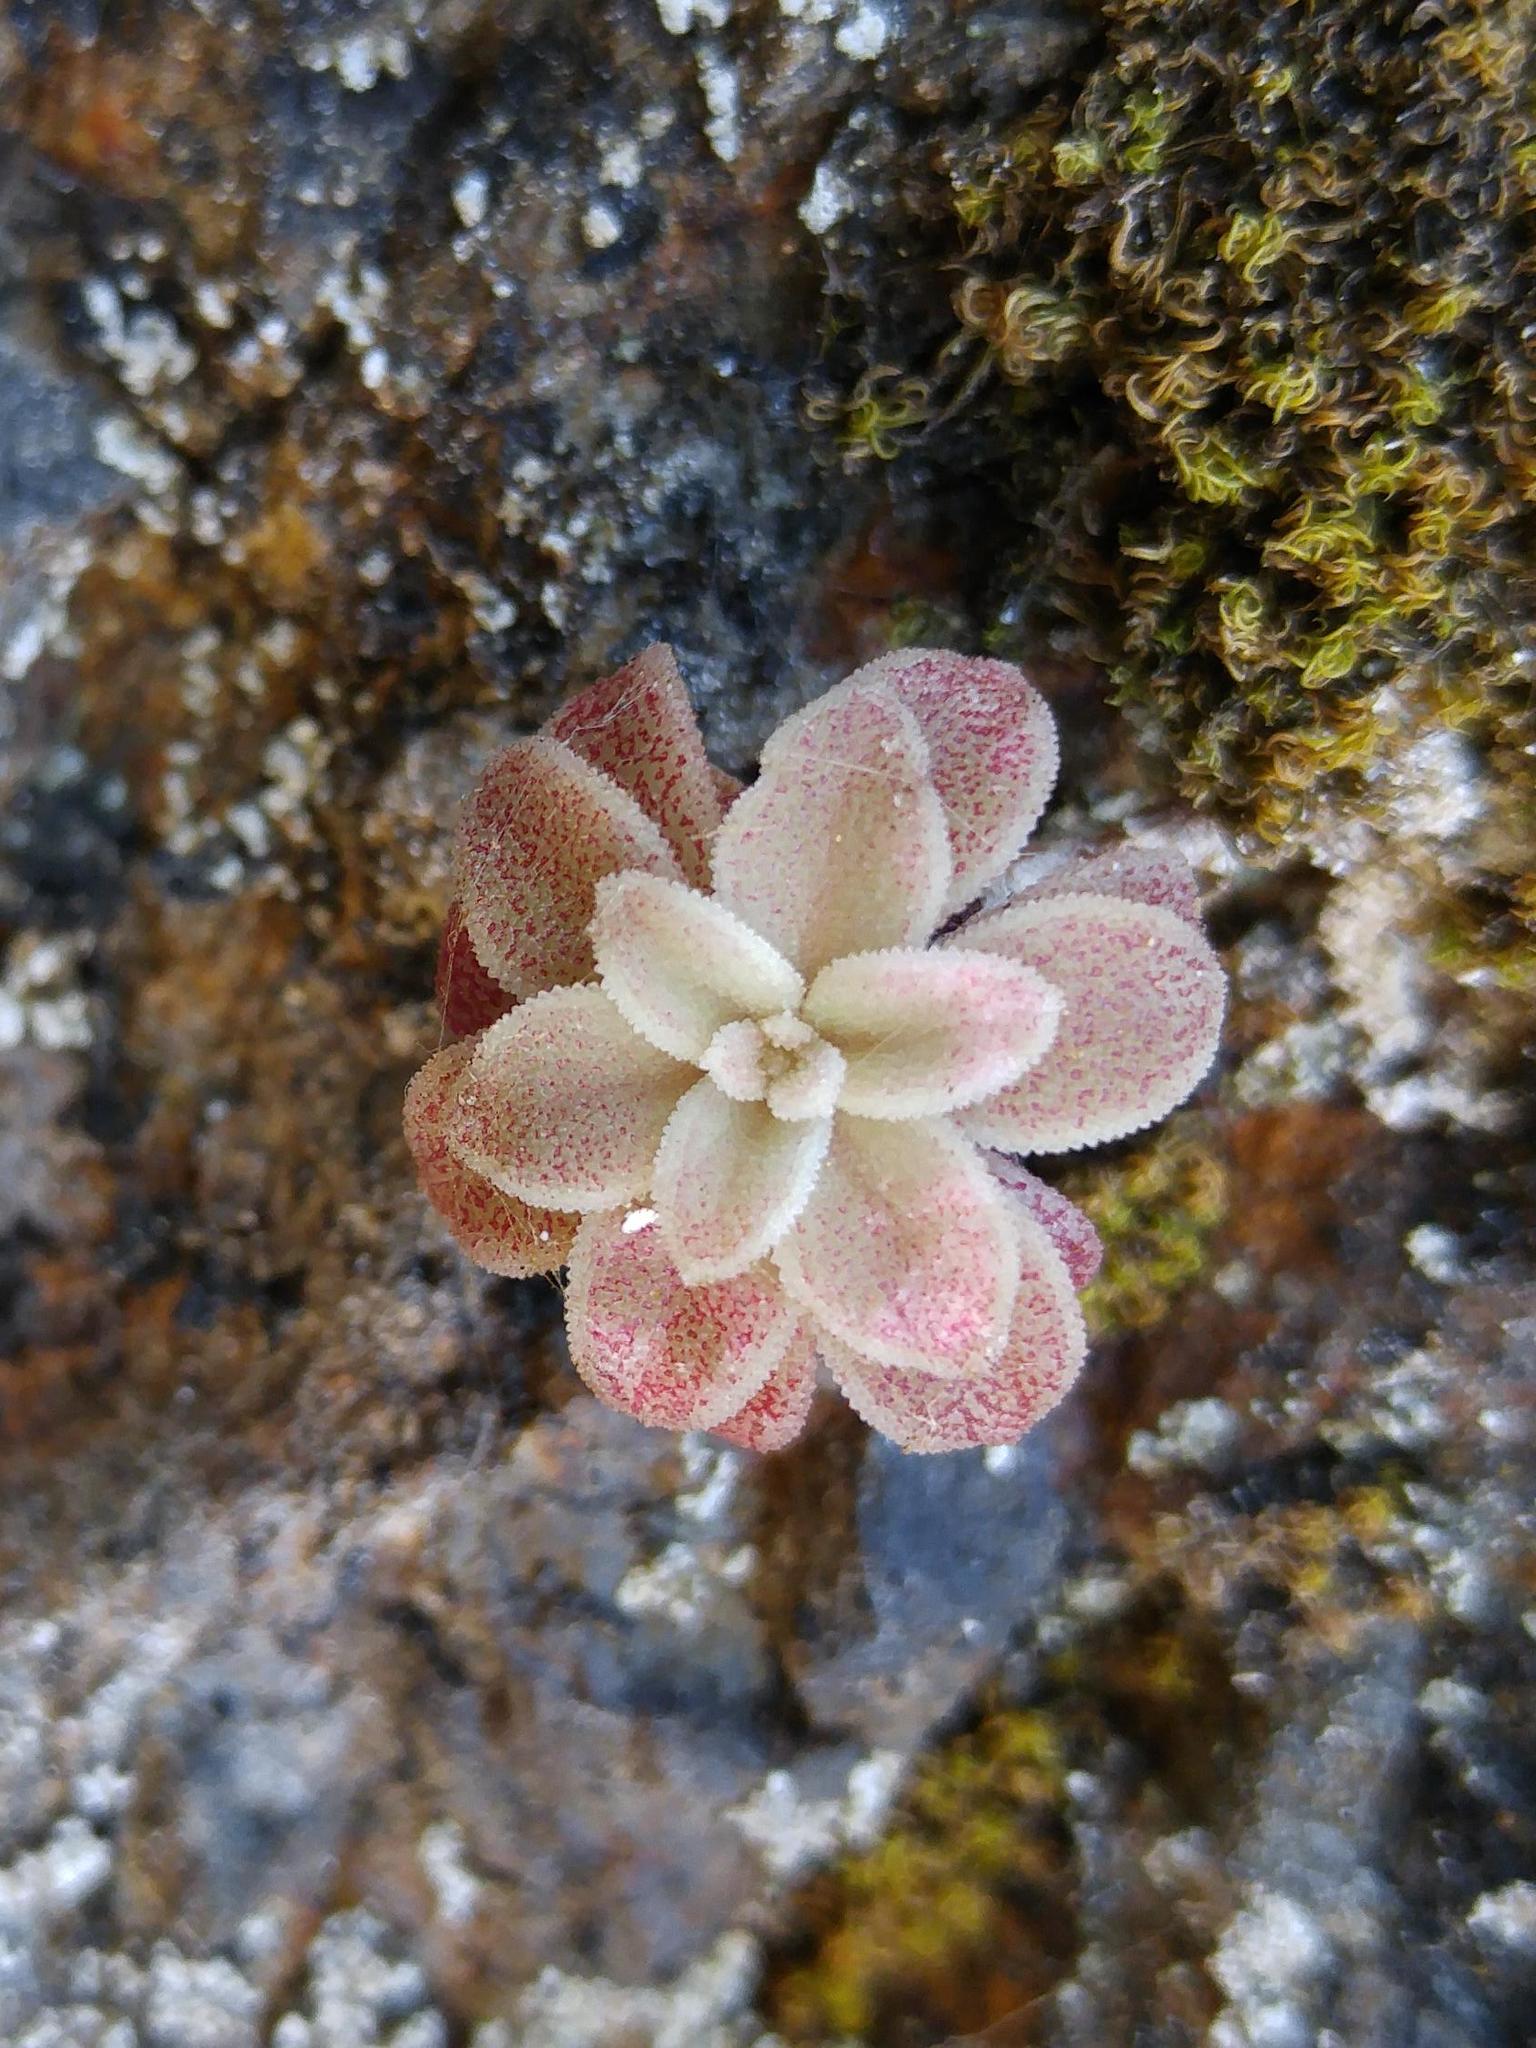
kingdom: Plantae
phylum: Tracheophyta
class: Magnoliopsida
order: Saxifragales
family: Crassulaceae
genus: Sedum
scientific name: Sedum cepaea
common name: Pink stonecrop
